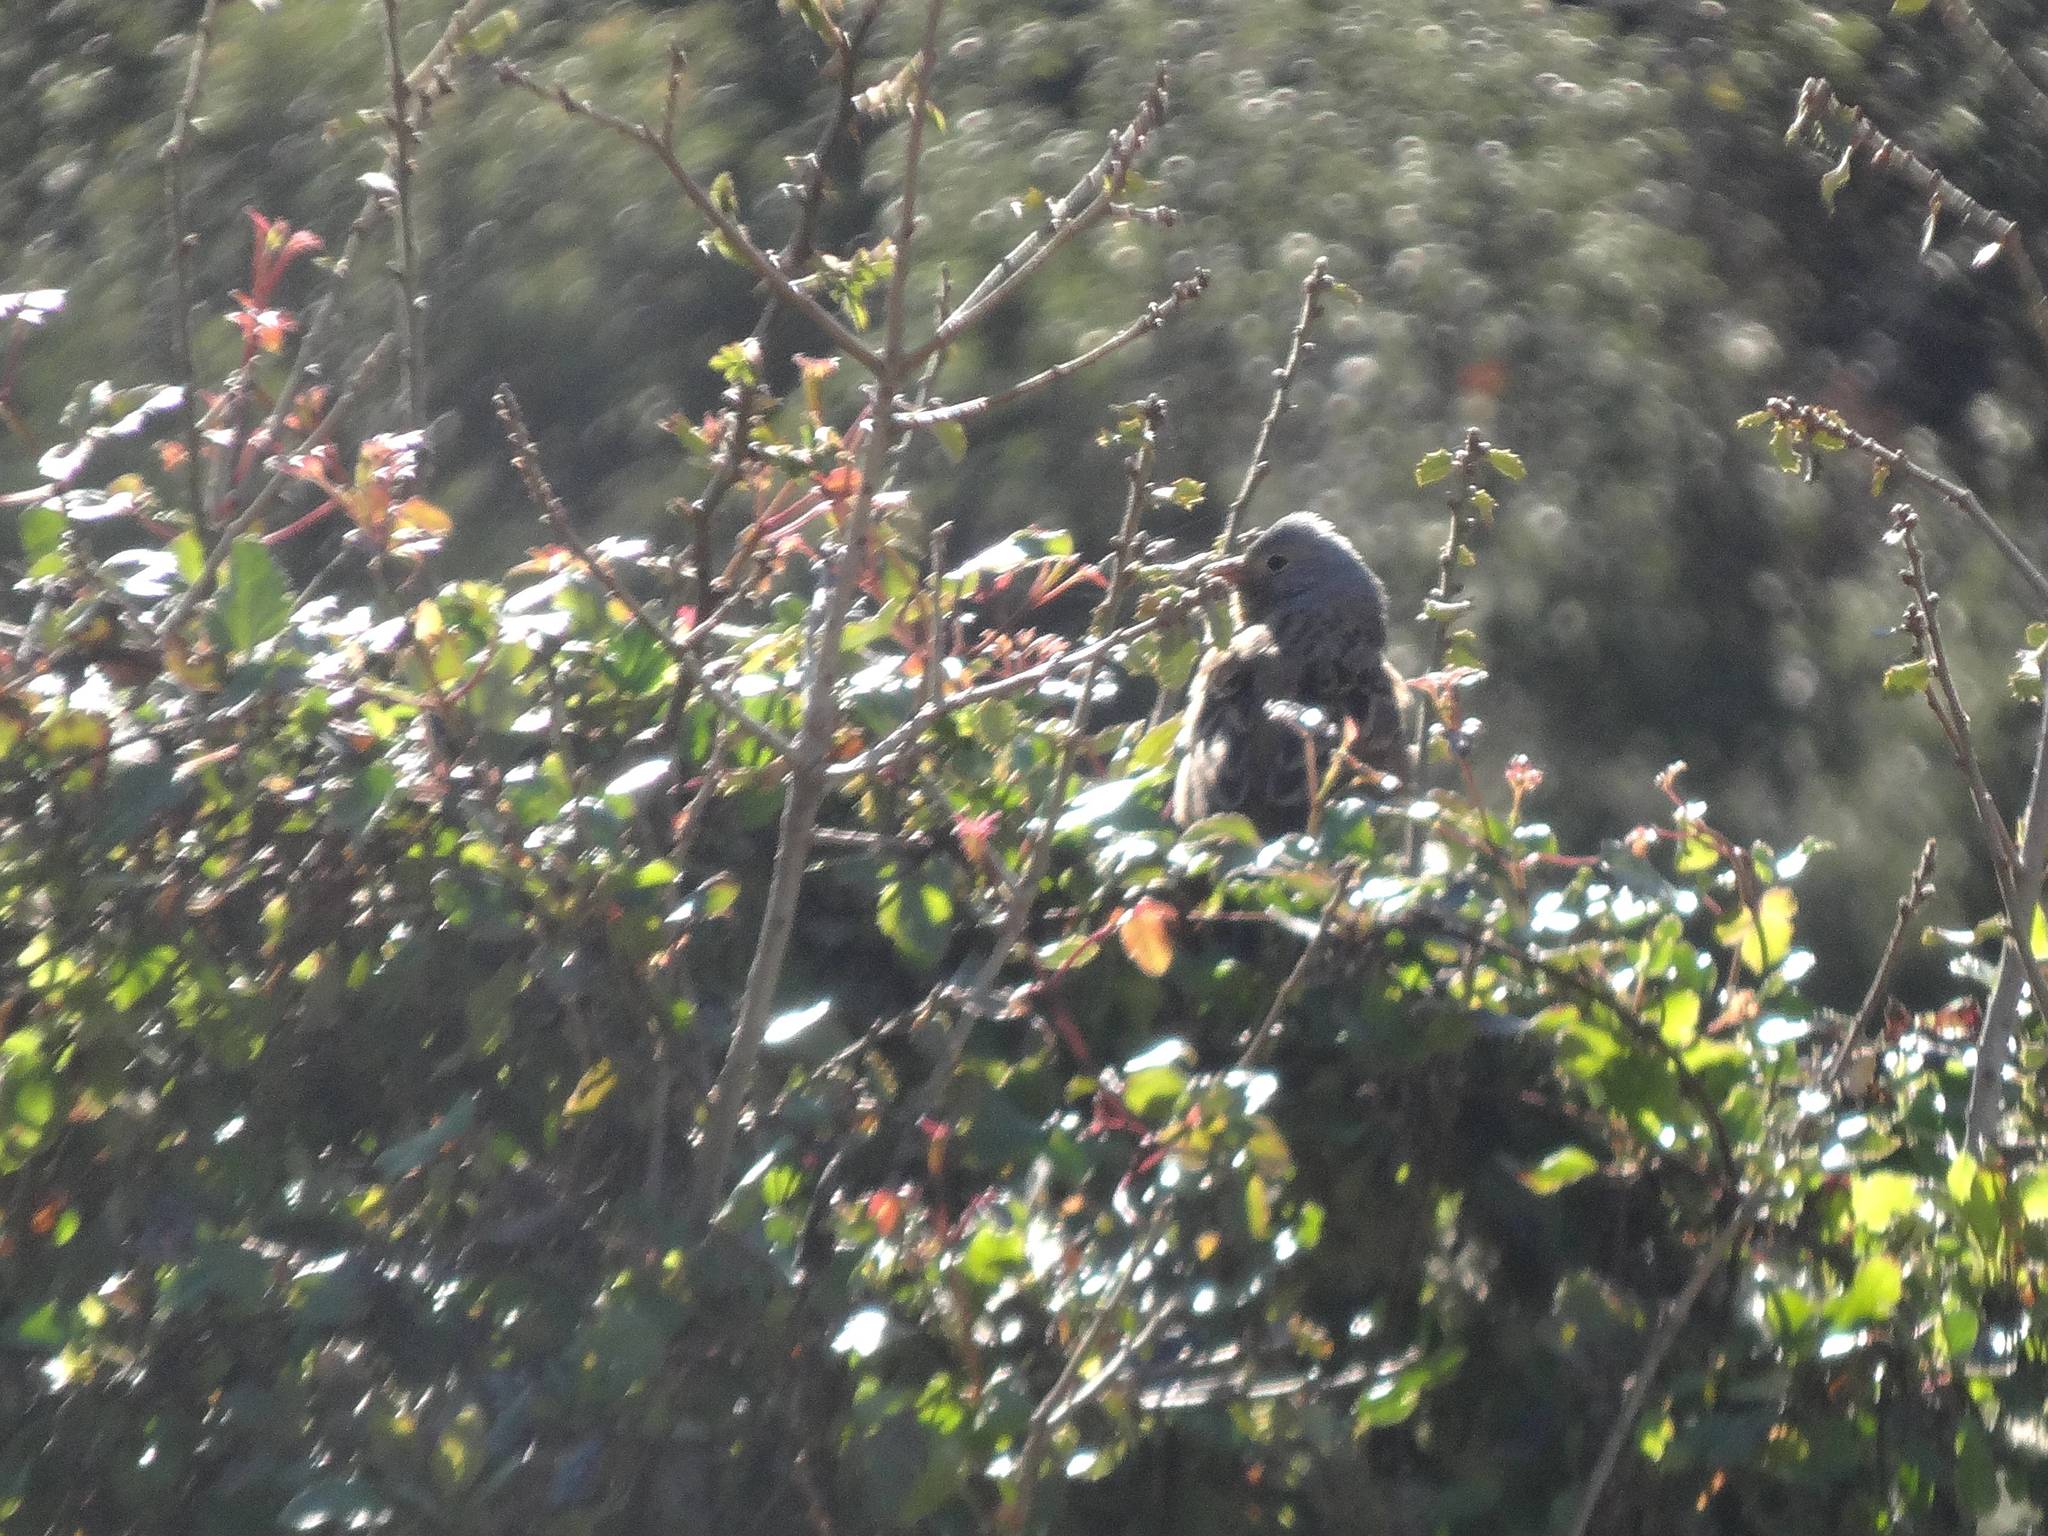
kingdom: Animalia
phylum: Chordata
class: Aves
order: Passeriformes
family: Emberizidae
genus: Emberiza
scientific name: Emberiza caesia
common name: Cretzschmar's bunting
